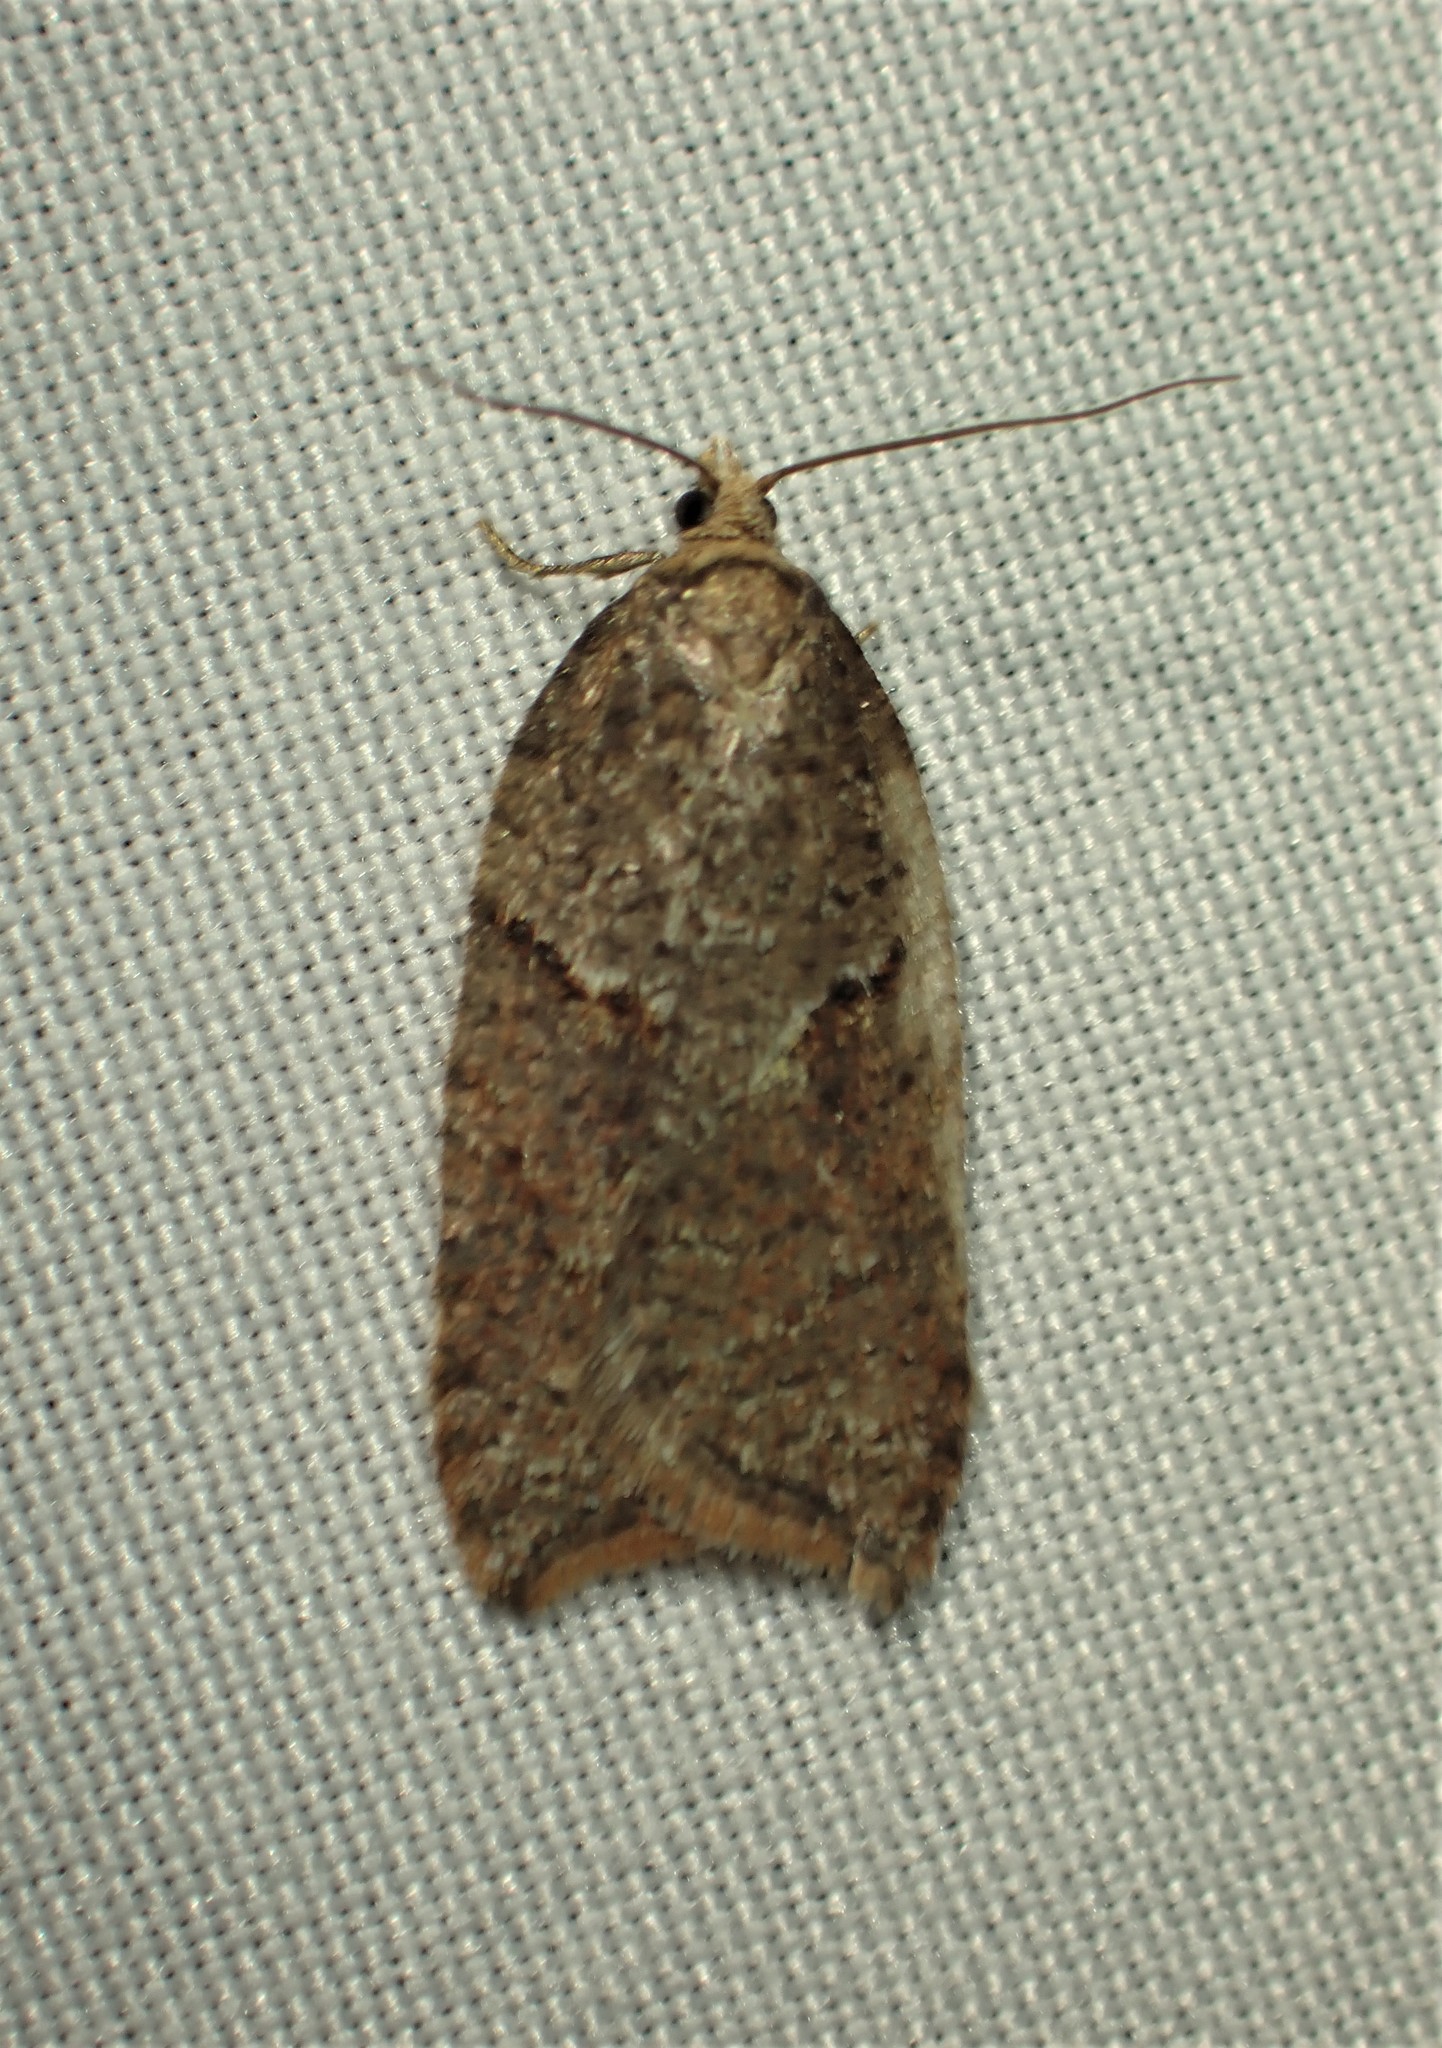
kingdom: Animalia
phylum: Arthropoda
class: Insecta
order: Lepidoptera
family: Tortricidae
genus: Acleris
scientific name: Acleris maccana
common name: Marbled button
